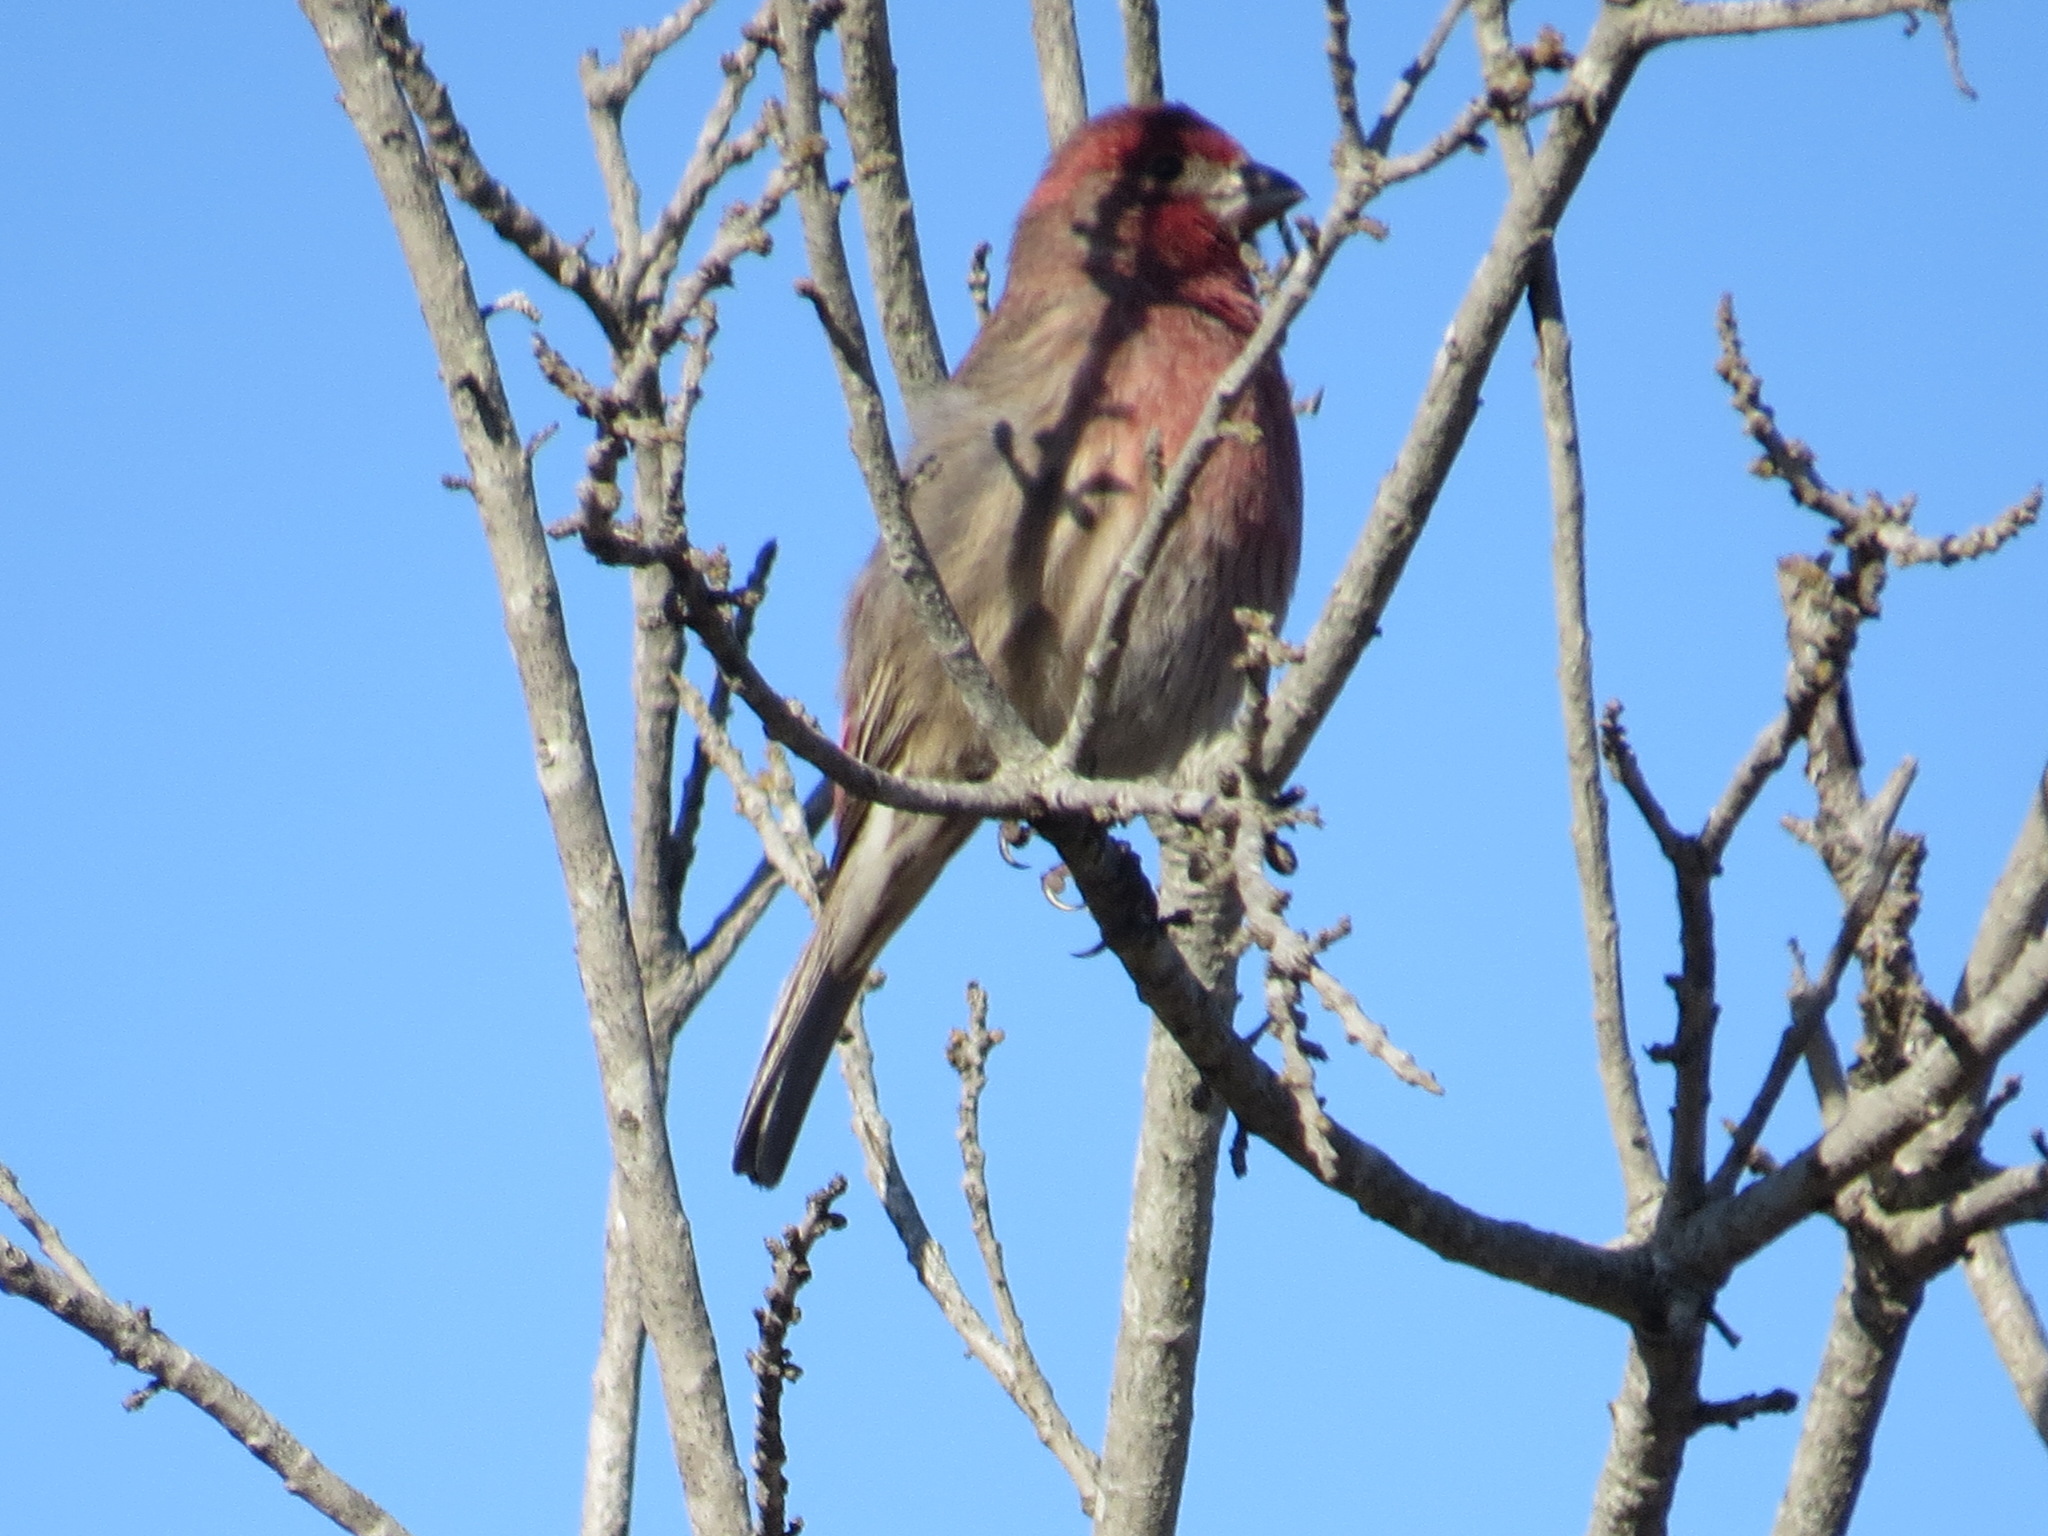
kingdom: Animalia
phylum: Chordata
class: Aves
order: Passeriformes
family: Fringillidae
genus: Haemorhous
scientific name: Haemorhous mexicanus
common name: House finch
